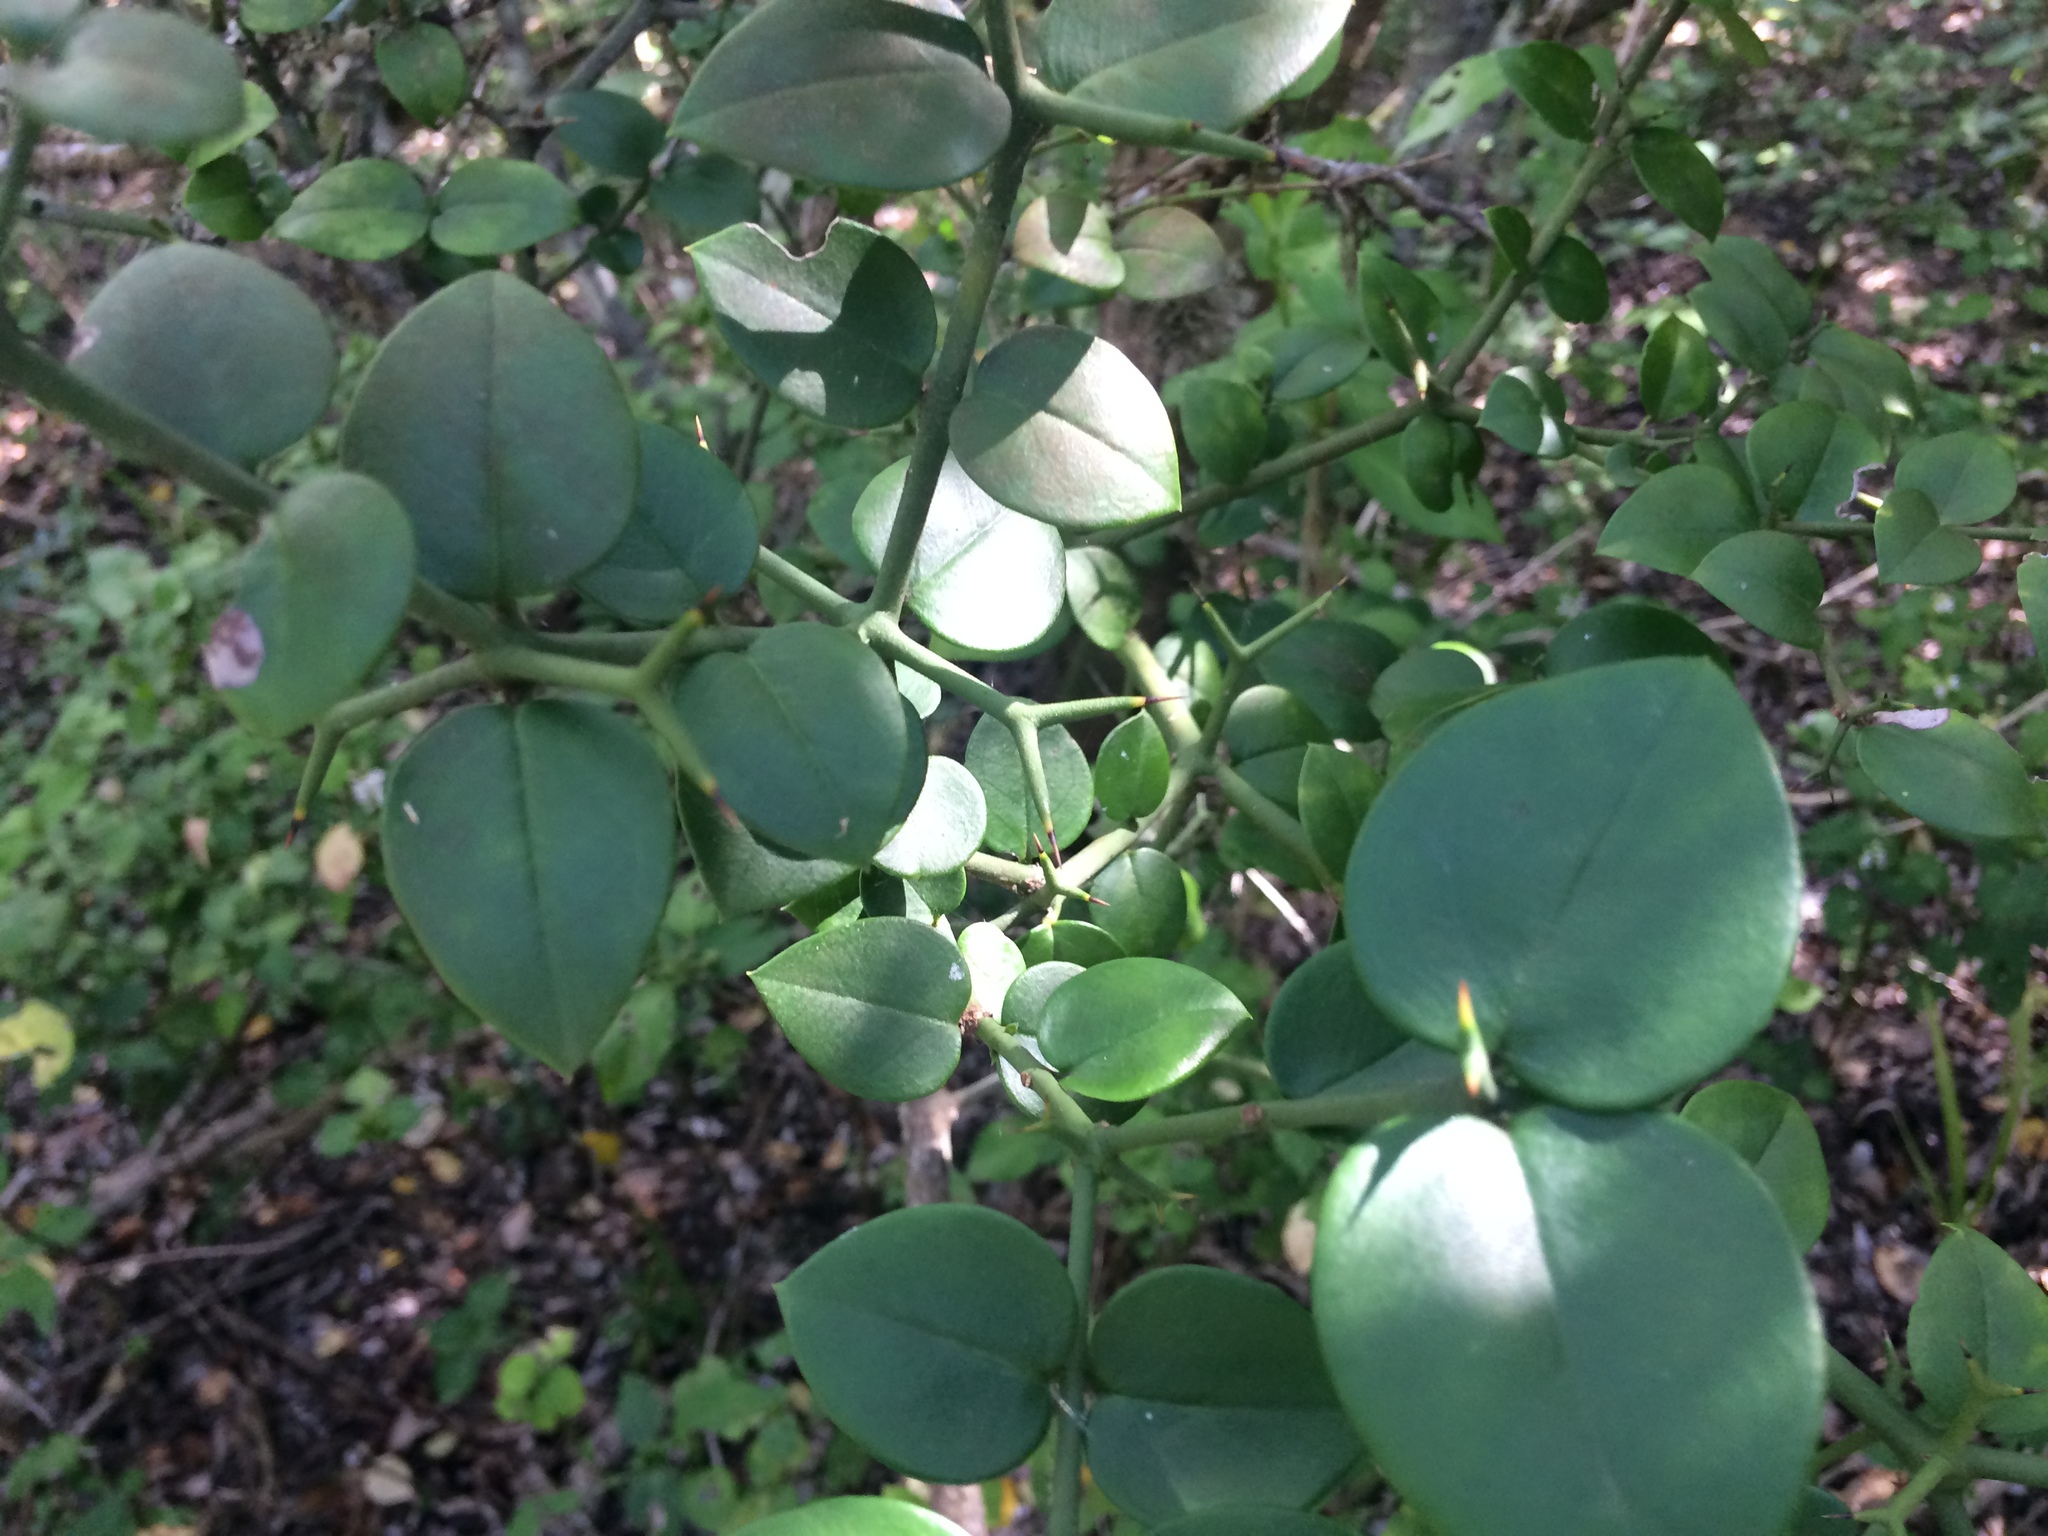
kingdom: Plantae
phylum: Tracheophyta
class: Magnoliopsida
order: Gentianales
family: Apocynaceae
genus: Carissa
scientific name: Carissa bispinosa
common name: Forest num-num
